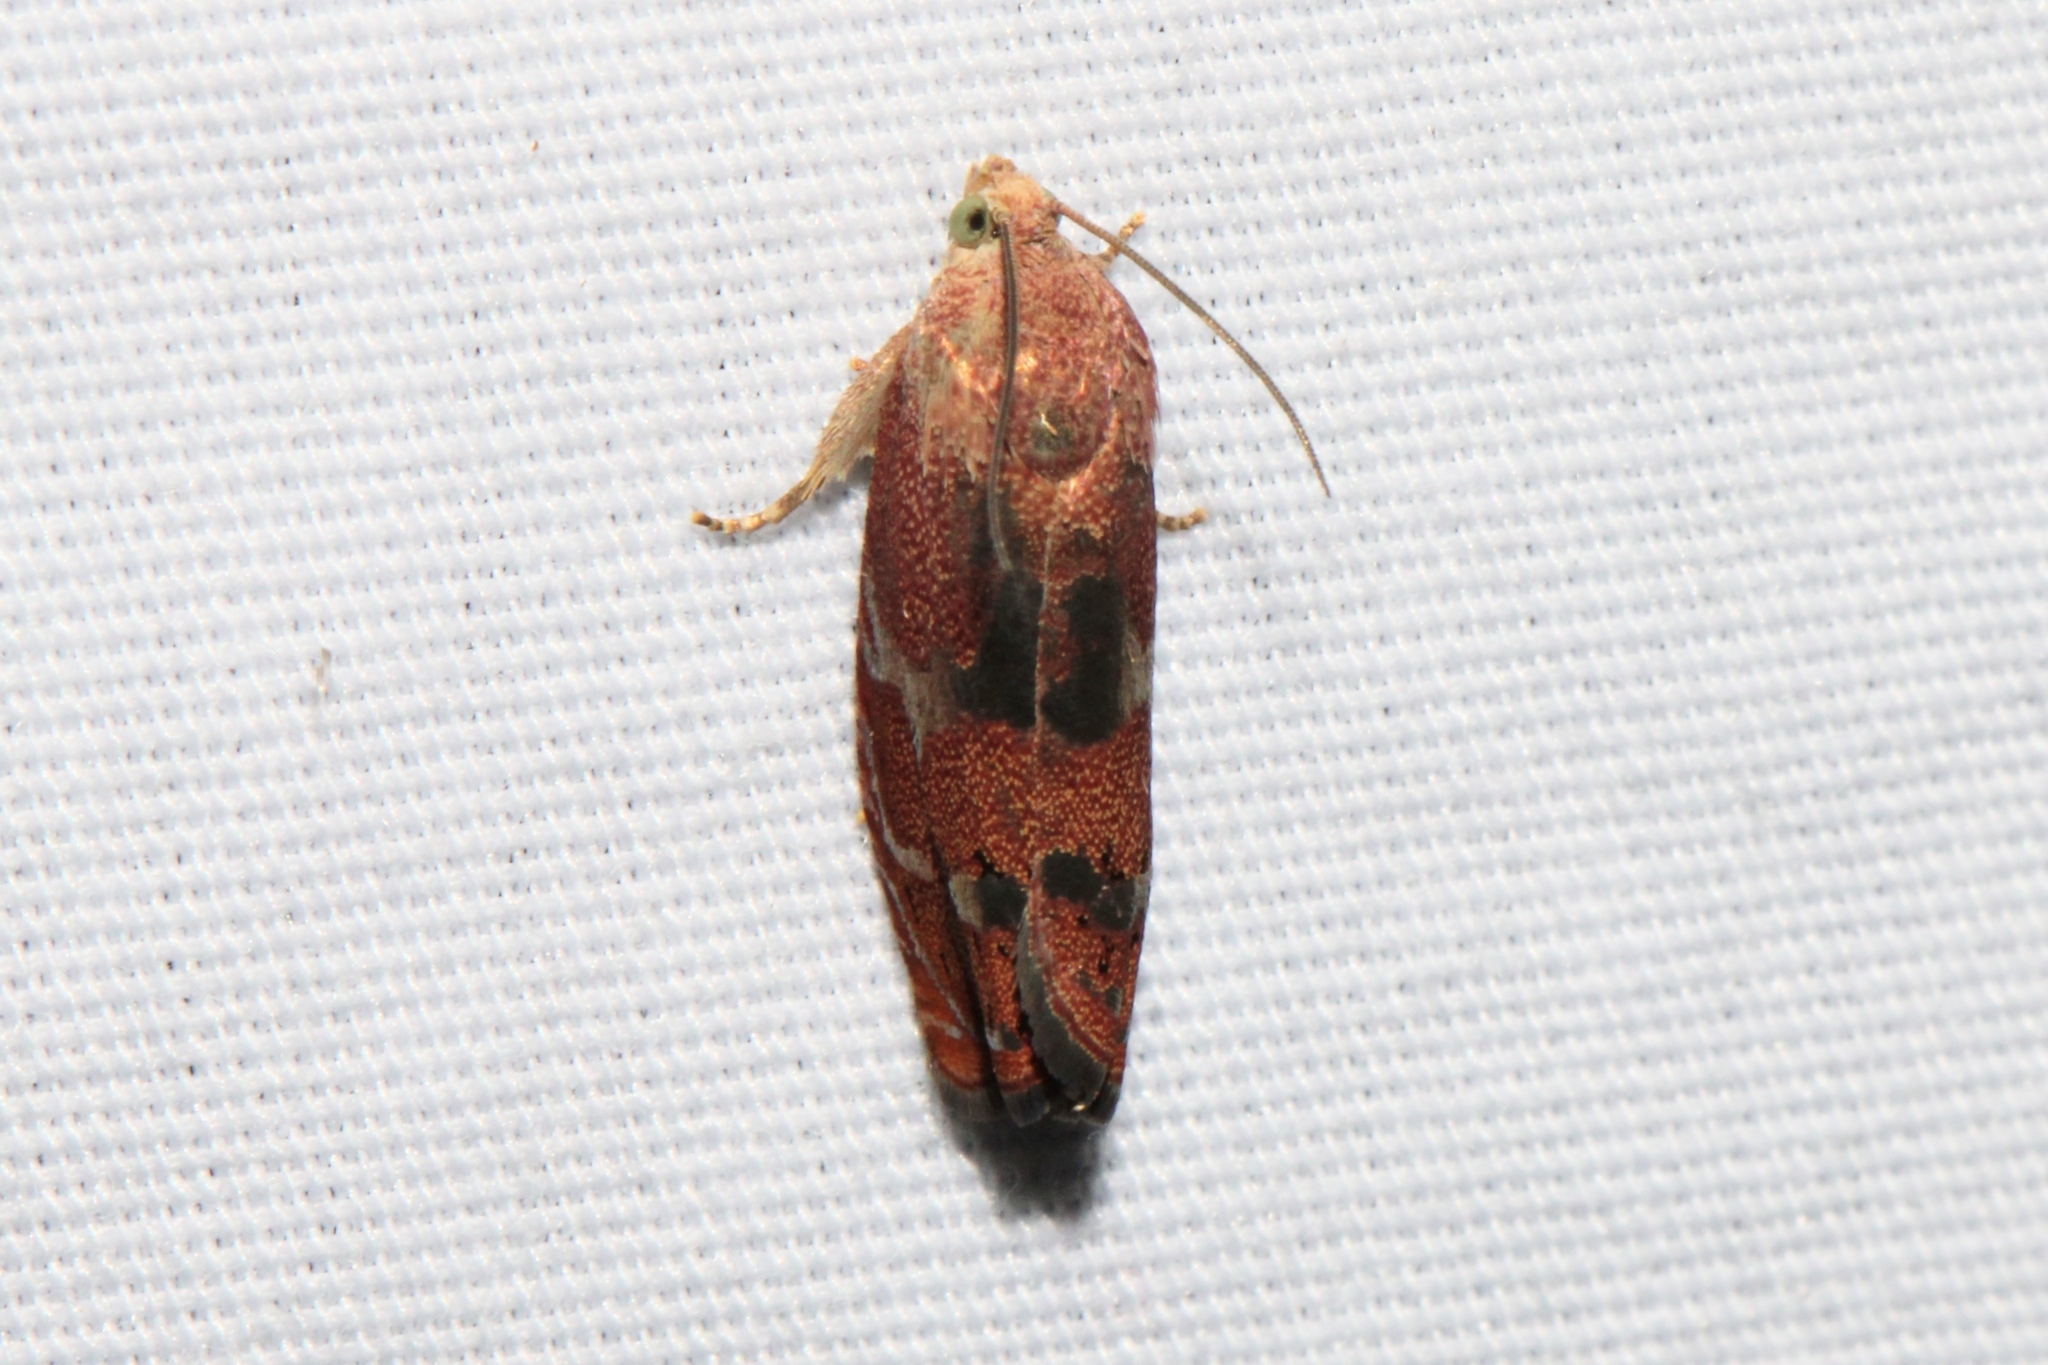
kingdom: Animalia
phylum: Arthropoda
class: Insecta
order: Lepidoptera
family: Tortricidae
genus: Cydia
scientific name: Cydia latiferreana
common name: Filbertworm moth
